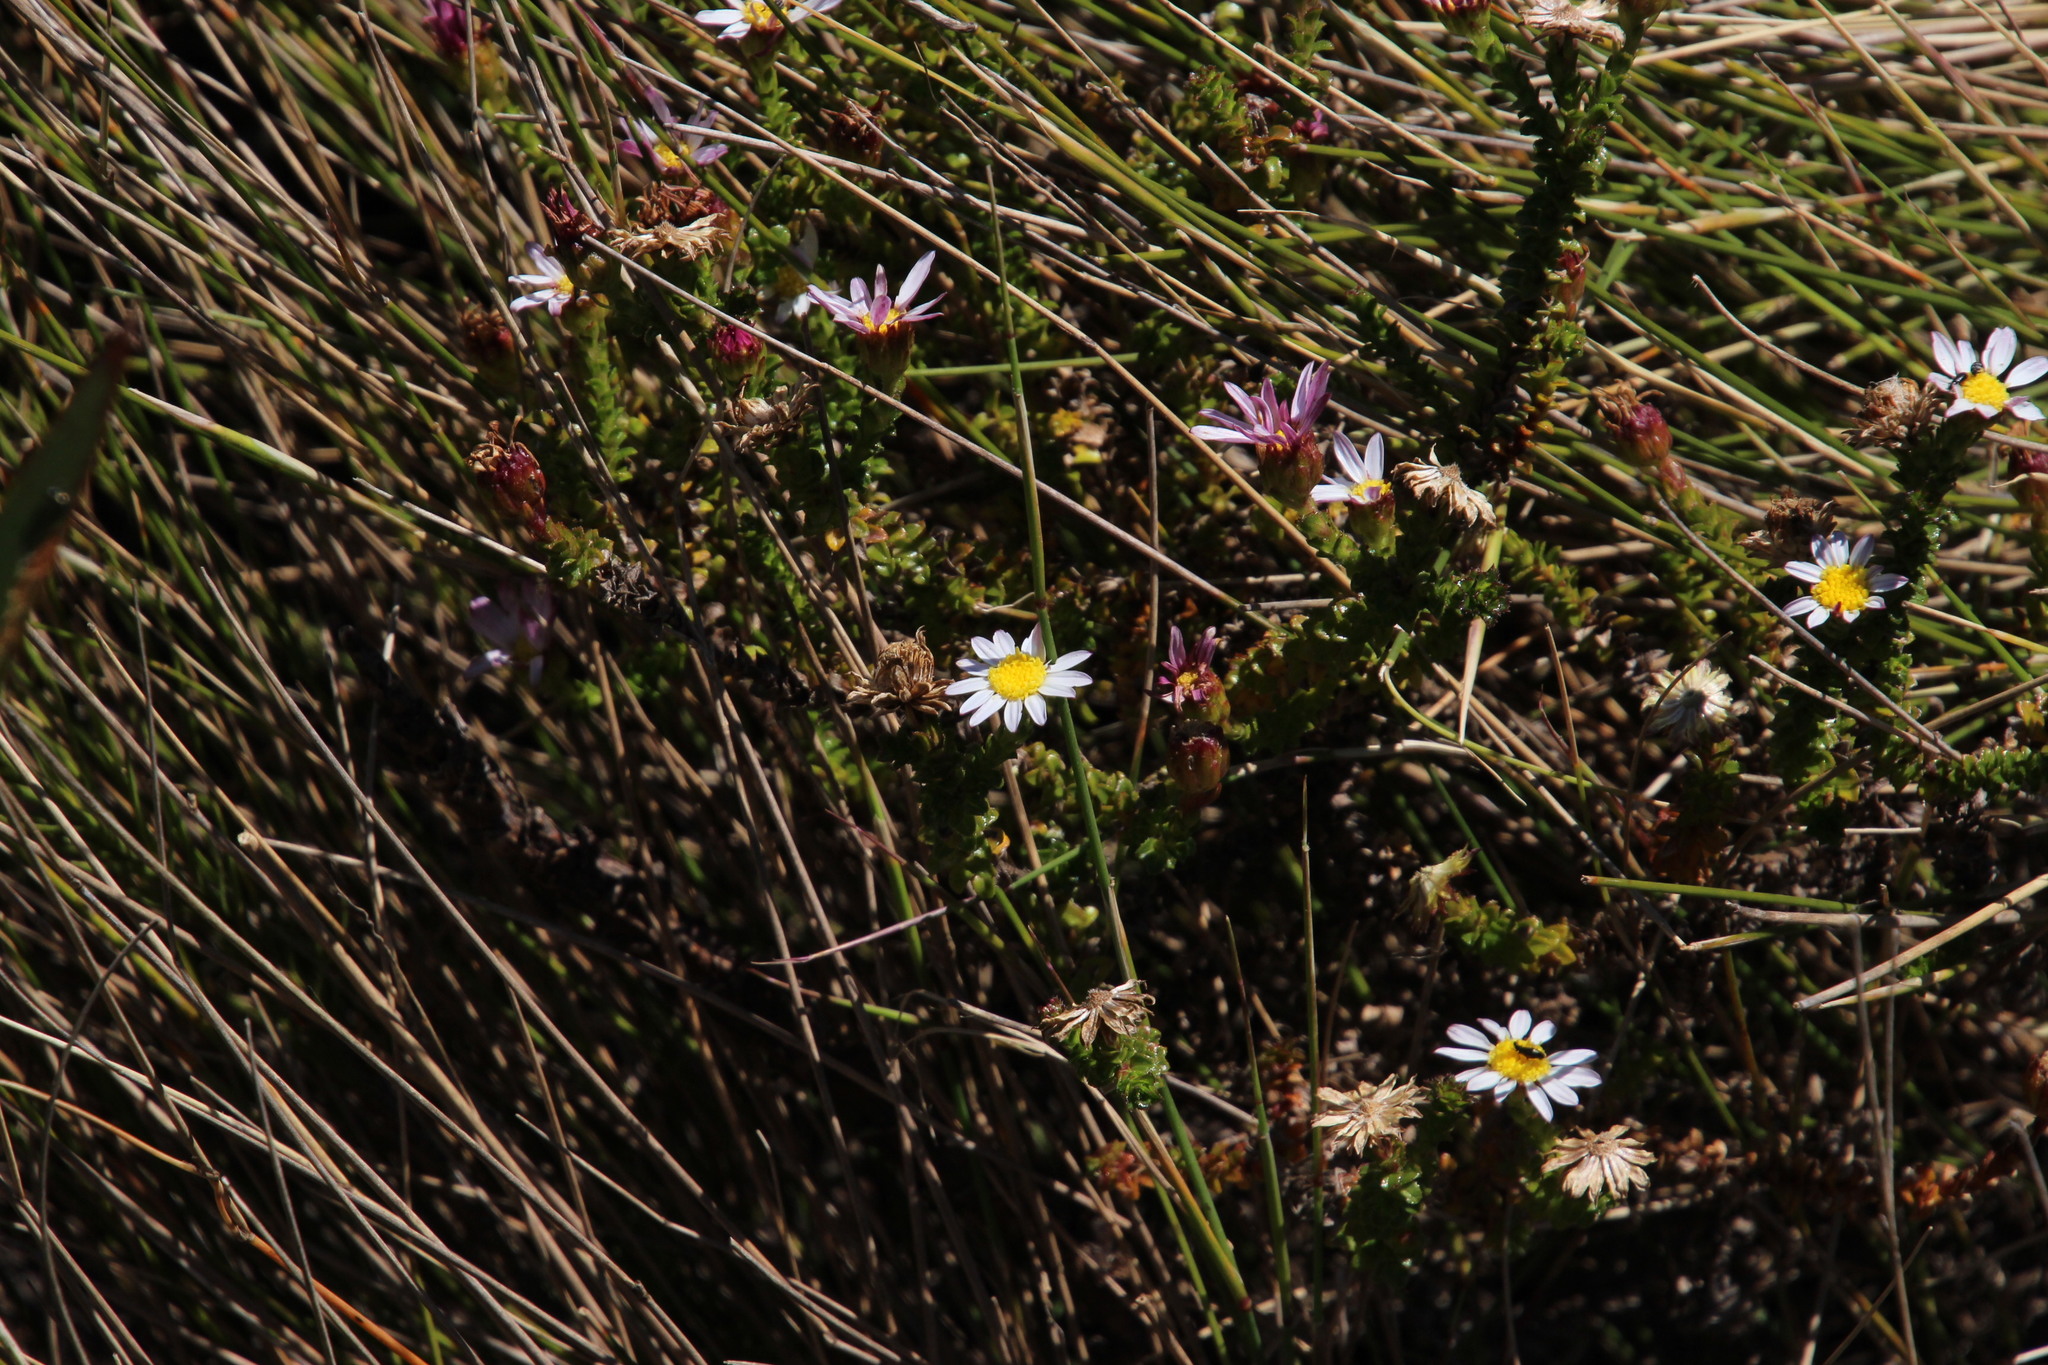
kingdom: Plantae
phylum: Tracheophyta
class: Magnoliopsida
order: Asterales
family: Asteraceae
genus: Polyarrhena
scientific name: Polyarrhena reflexa
